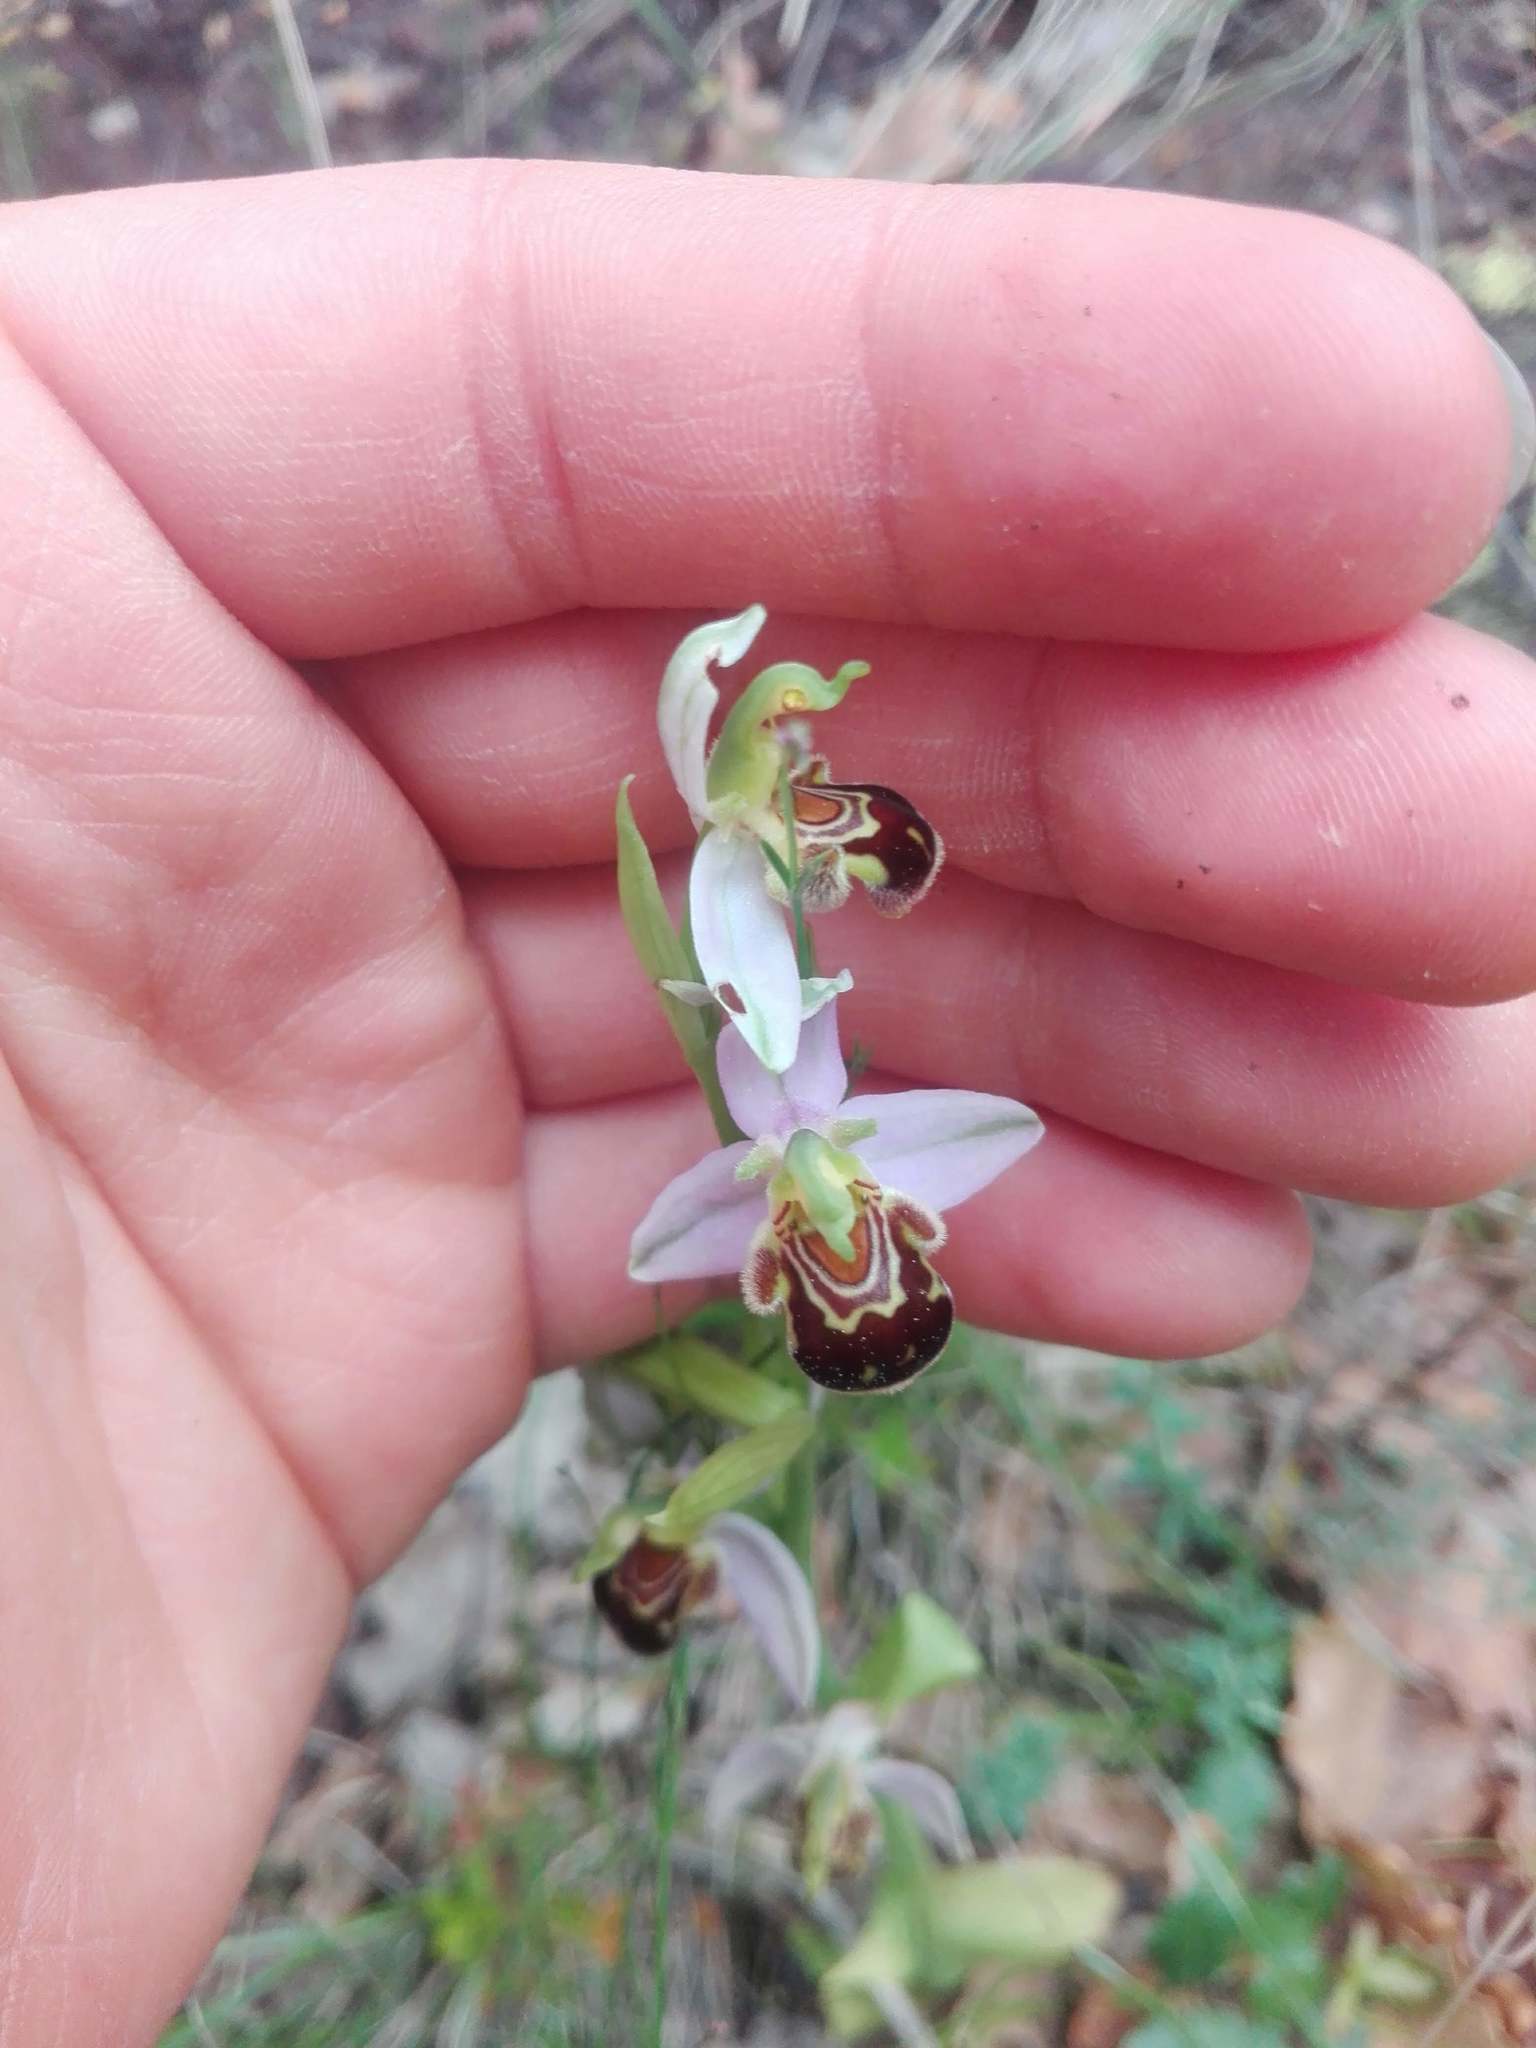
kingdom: Plantae
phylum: Tracheophyta
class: Liliopsida
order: Asparagales
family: Orchidaceae
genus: Ophrys
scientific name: Ophrys apifera
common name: Bee orchid
